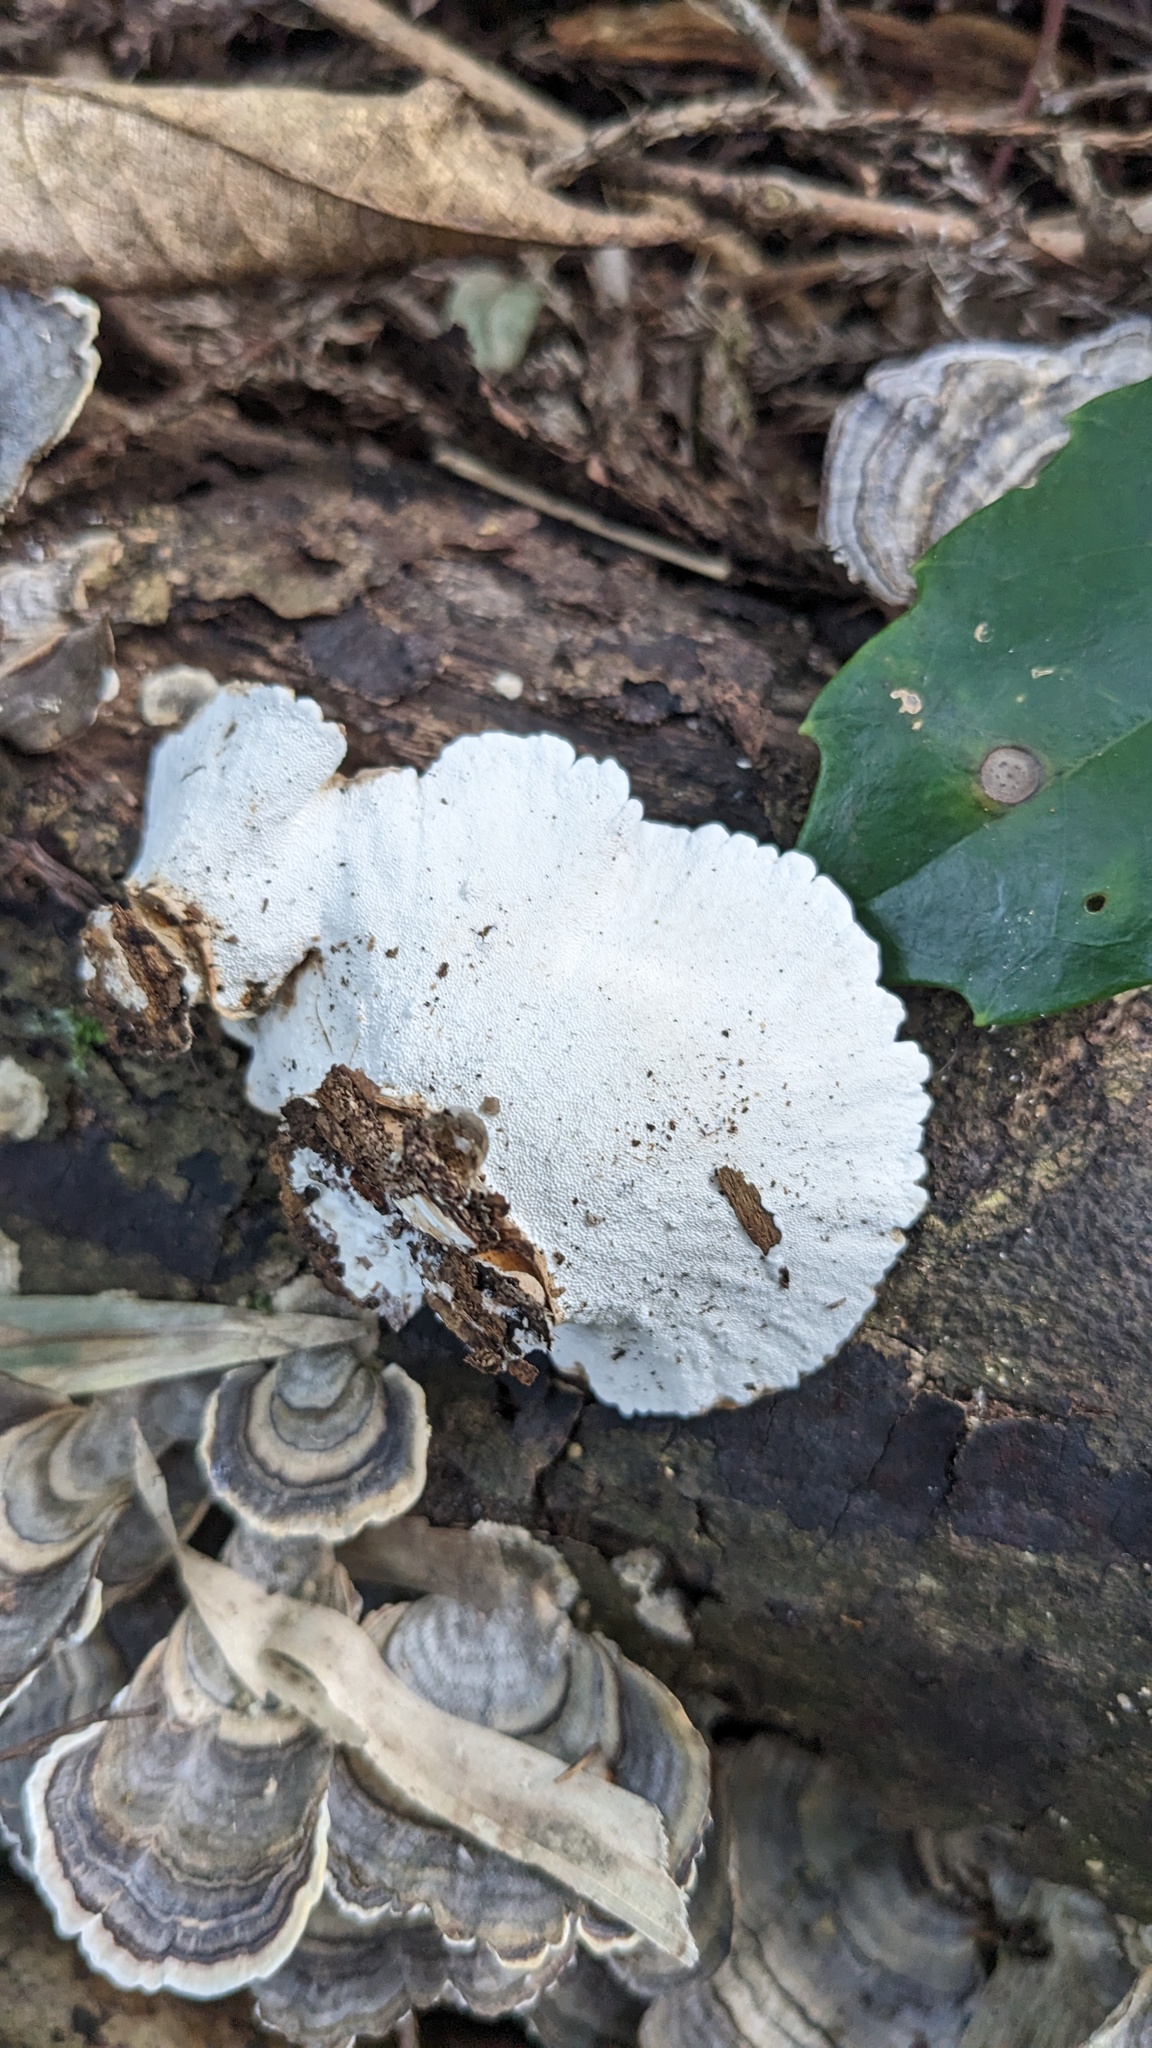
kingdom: Fungi
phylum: Basidiomycota
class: Agaricomycetes
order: Polyporales
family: Polyporaceae
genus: Trametes
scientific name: Trametes versicolor
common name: Turkeytail
